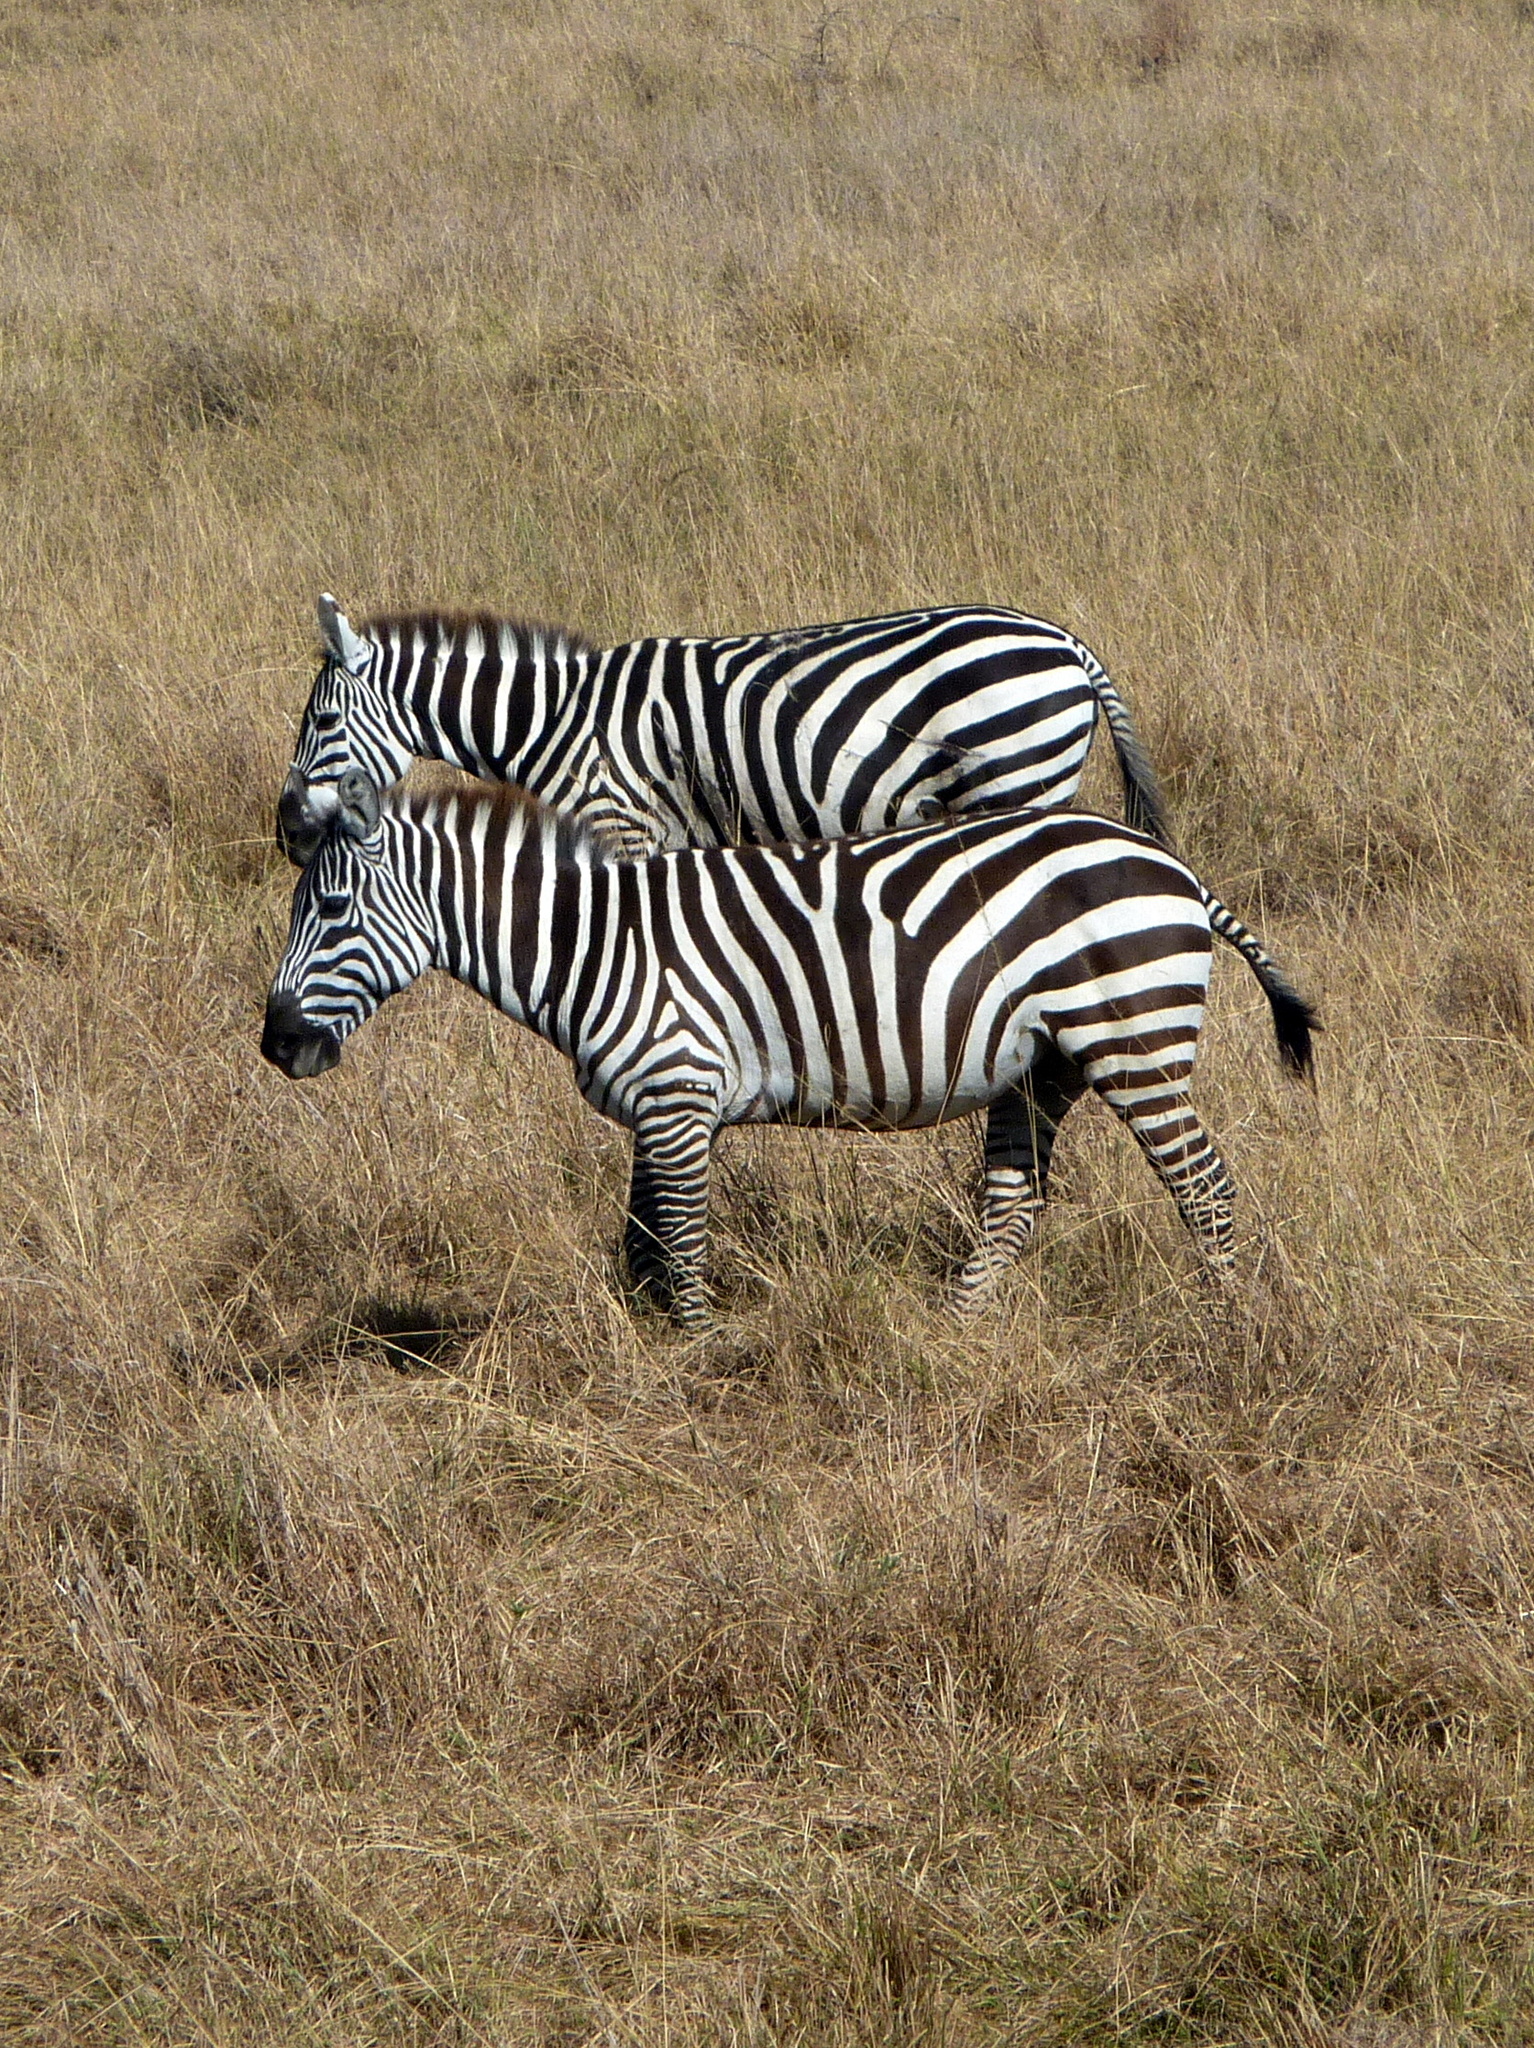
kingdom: Animalia
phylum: Chordata
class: Mammalia
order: Perissodactyla
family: Equidae
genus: Equus
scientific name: Equus quagga
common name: Plains zebra
